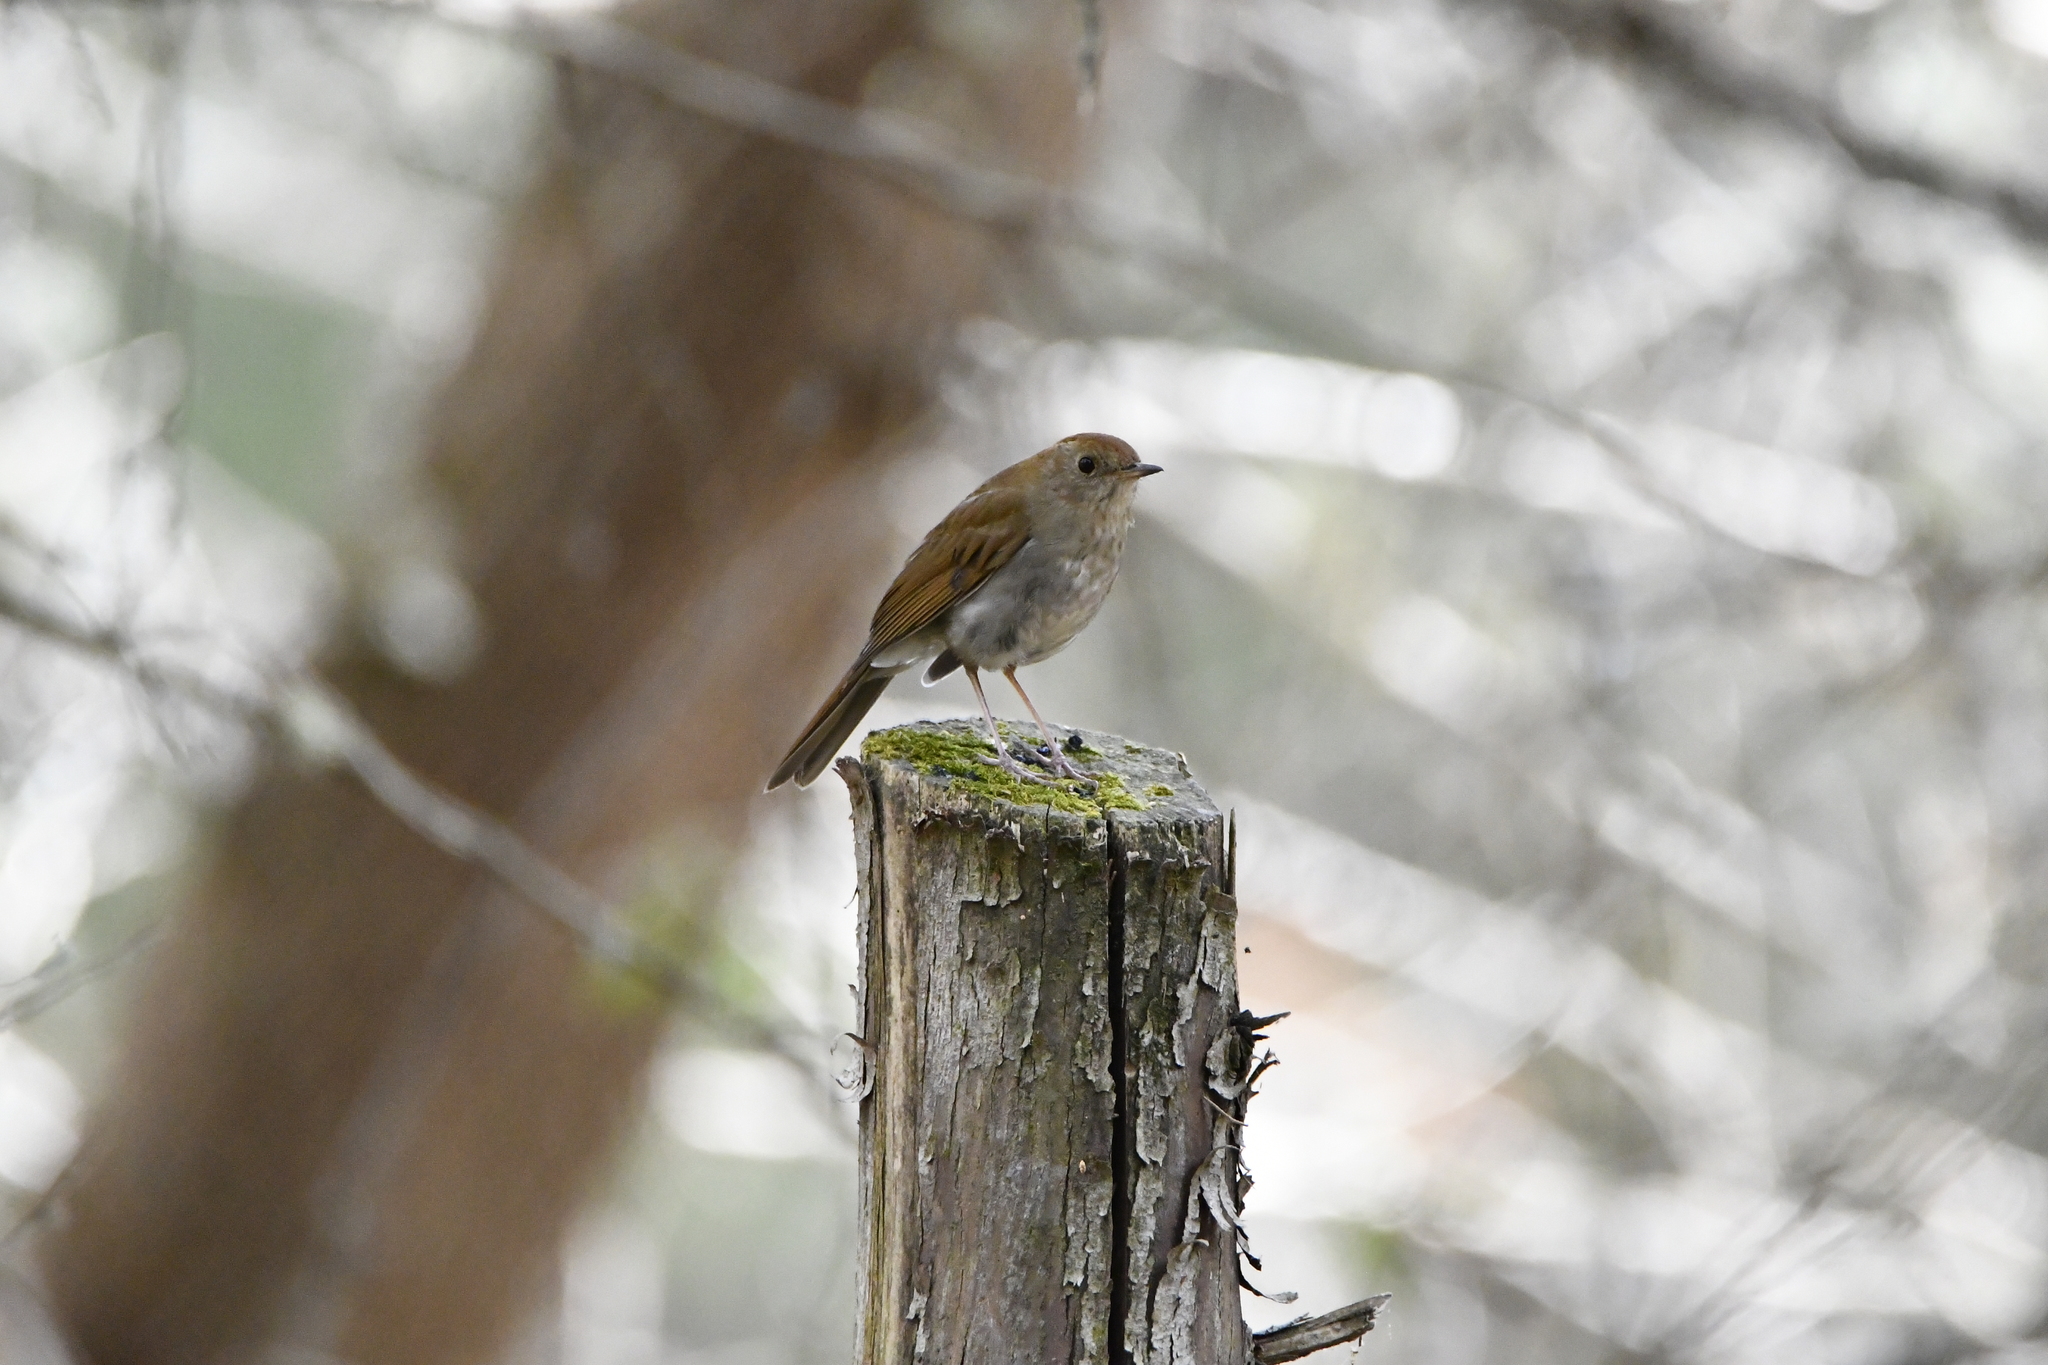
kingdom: Animalia
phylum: Chordata
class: Aves
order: Passeriformes
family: Turdidae
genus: Catharus
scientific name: Catharus occidentalis
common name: Russet nightingale-thrush
